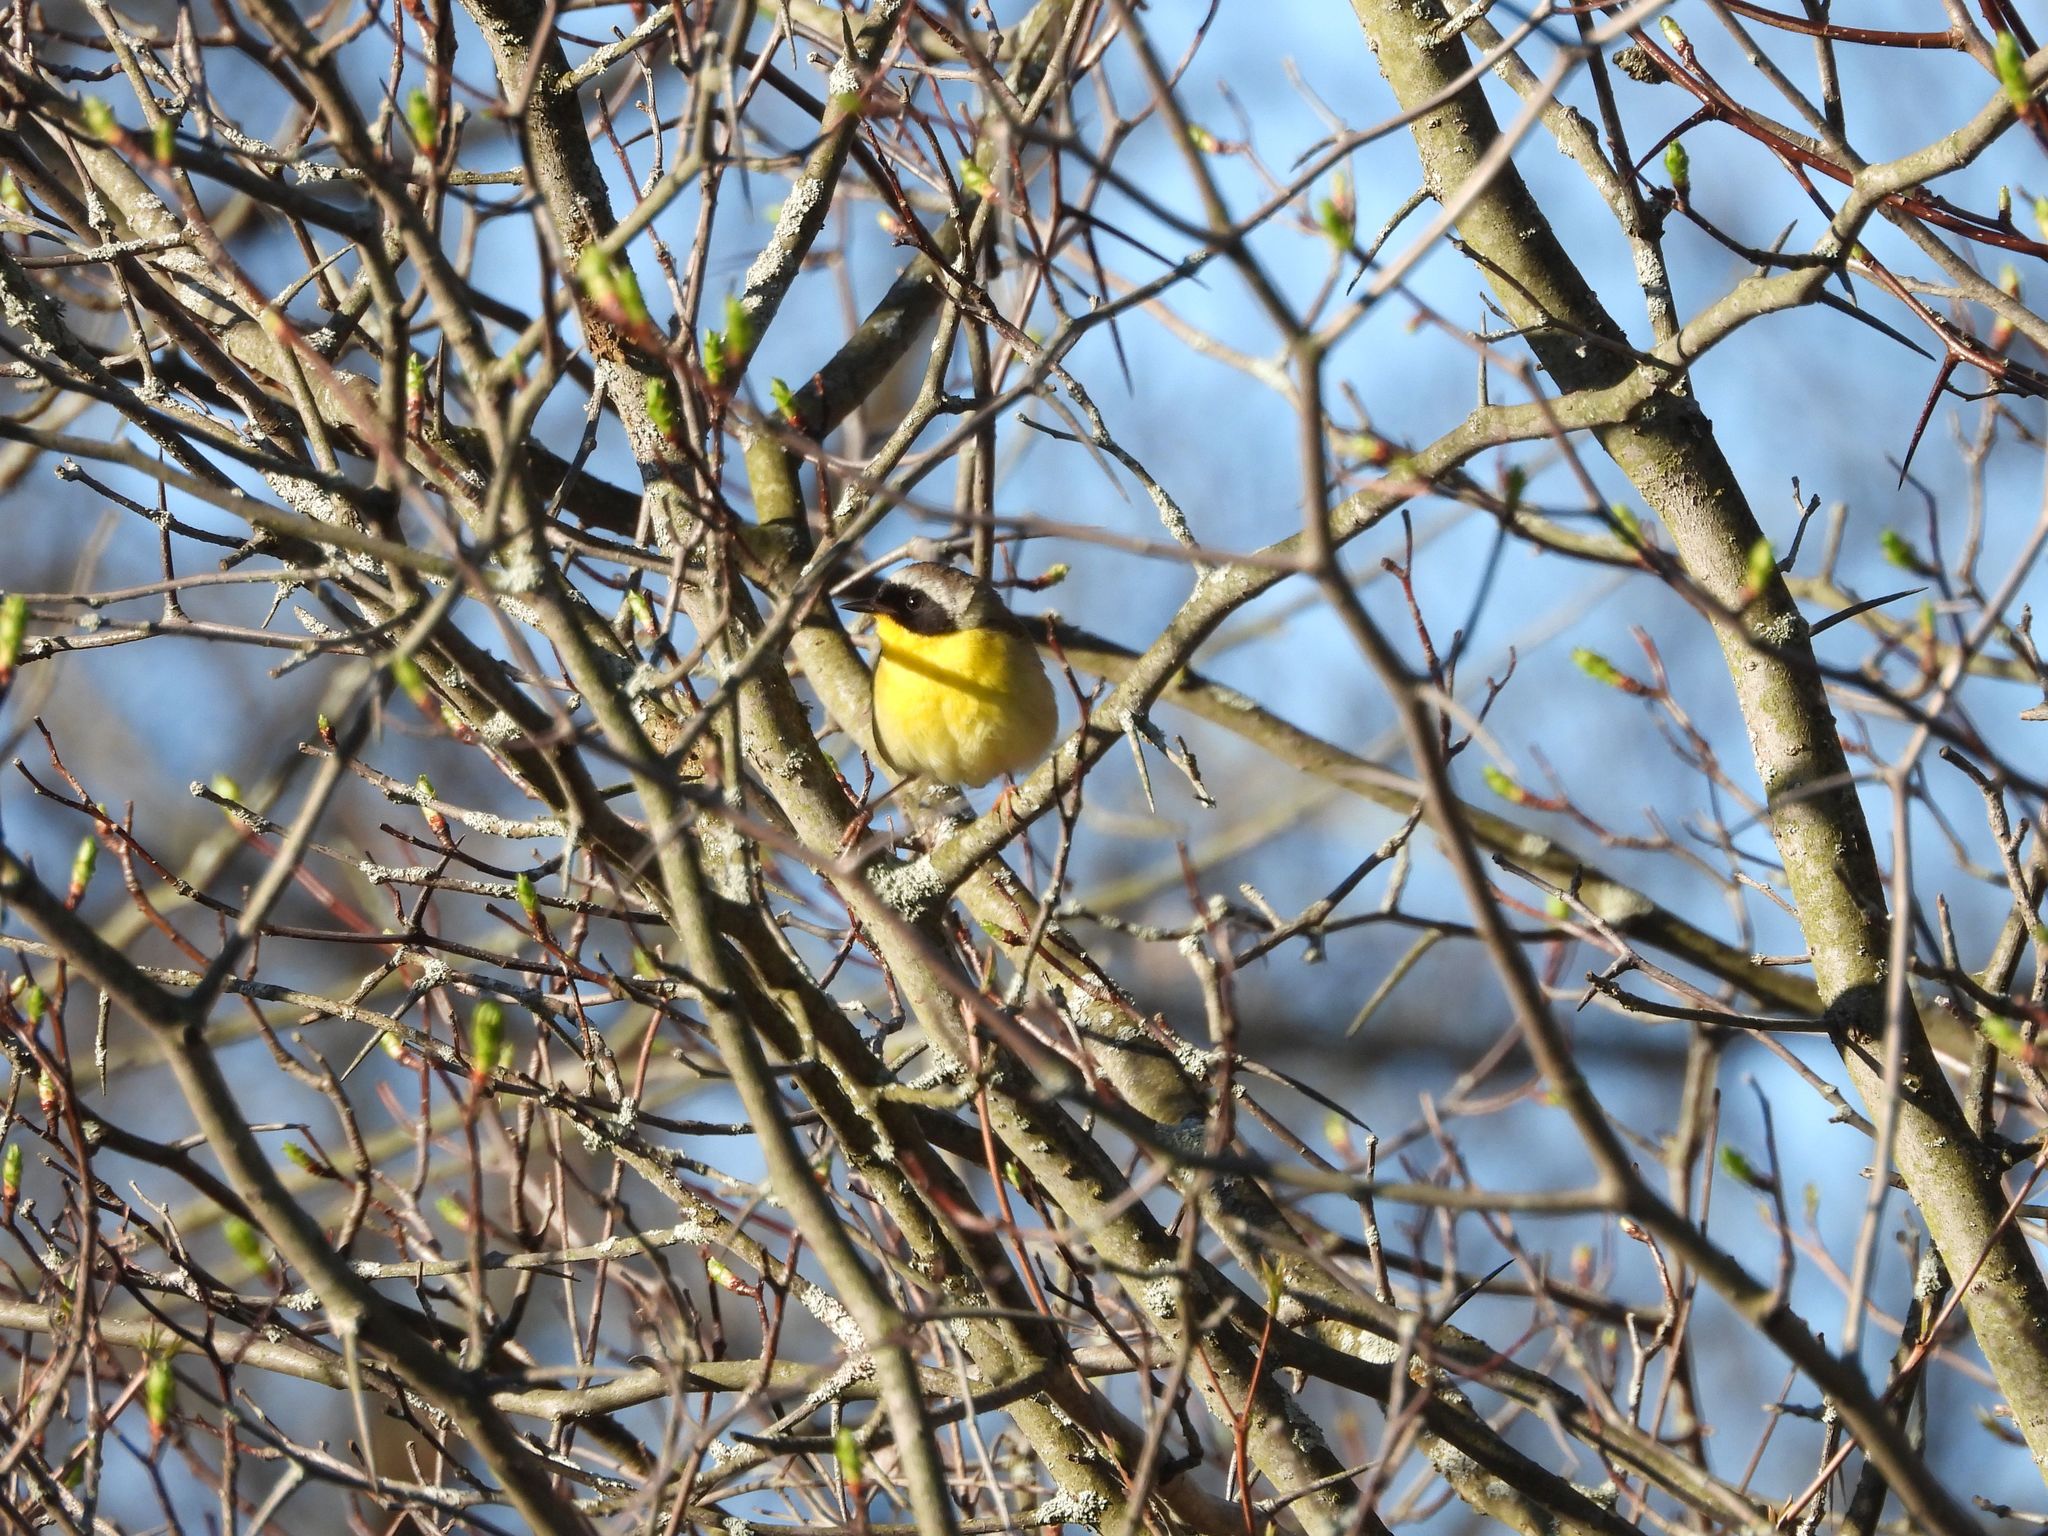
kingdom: Animalia
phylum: Chordata
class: Aves
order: Passeriformes
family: Parulidae
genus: Geothlypis
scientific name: Geothlypis trichas
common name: Common yellowthroat
